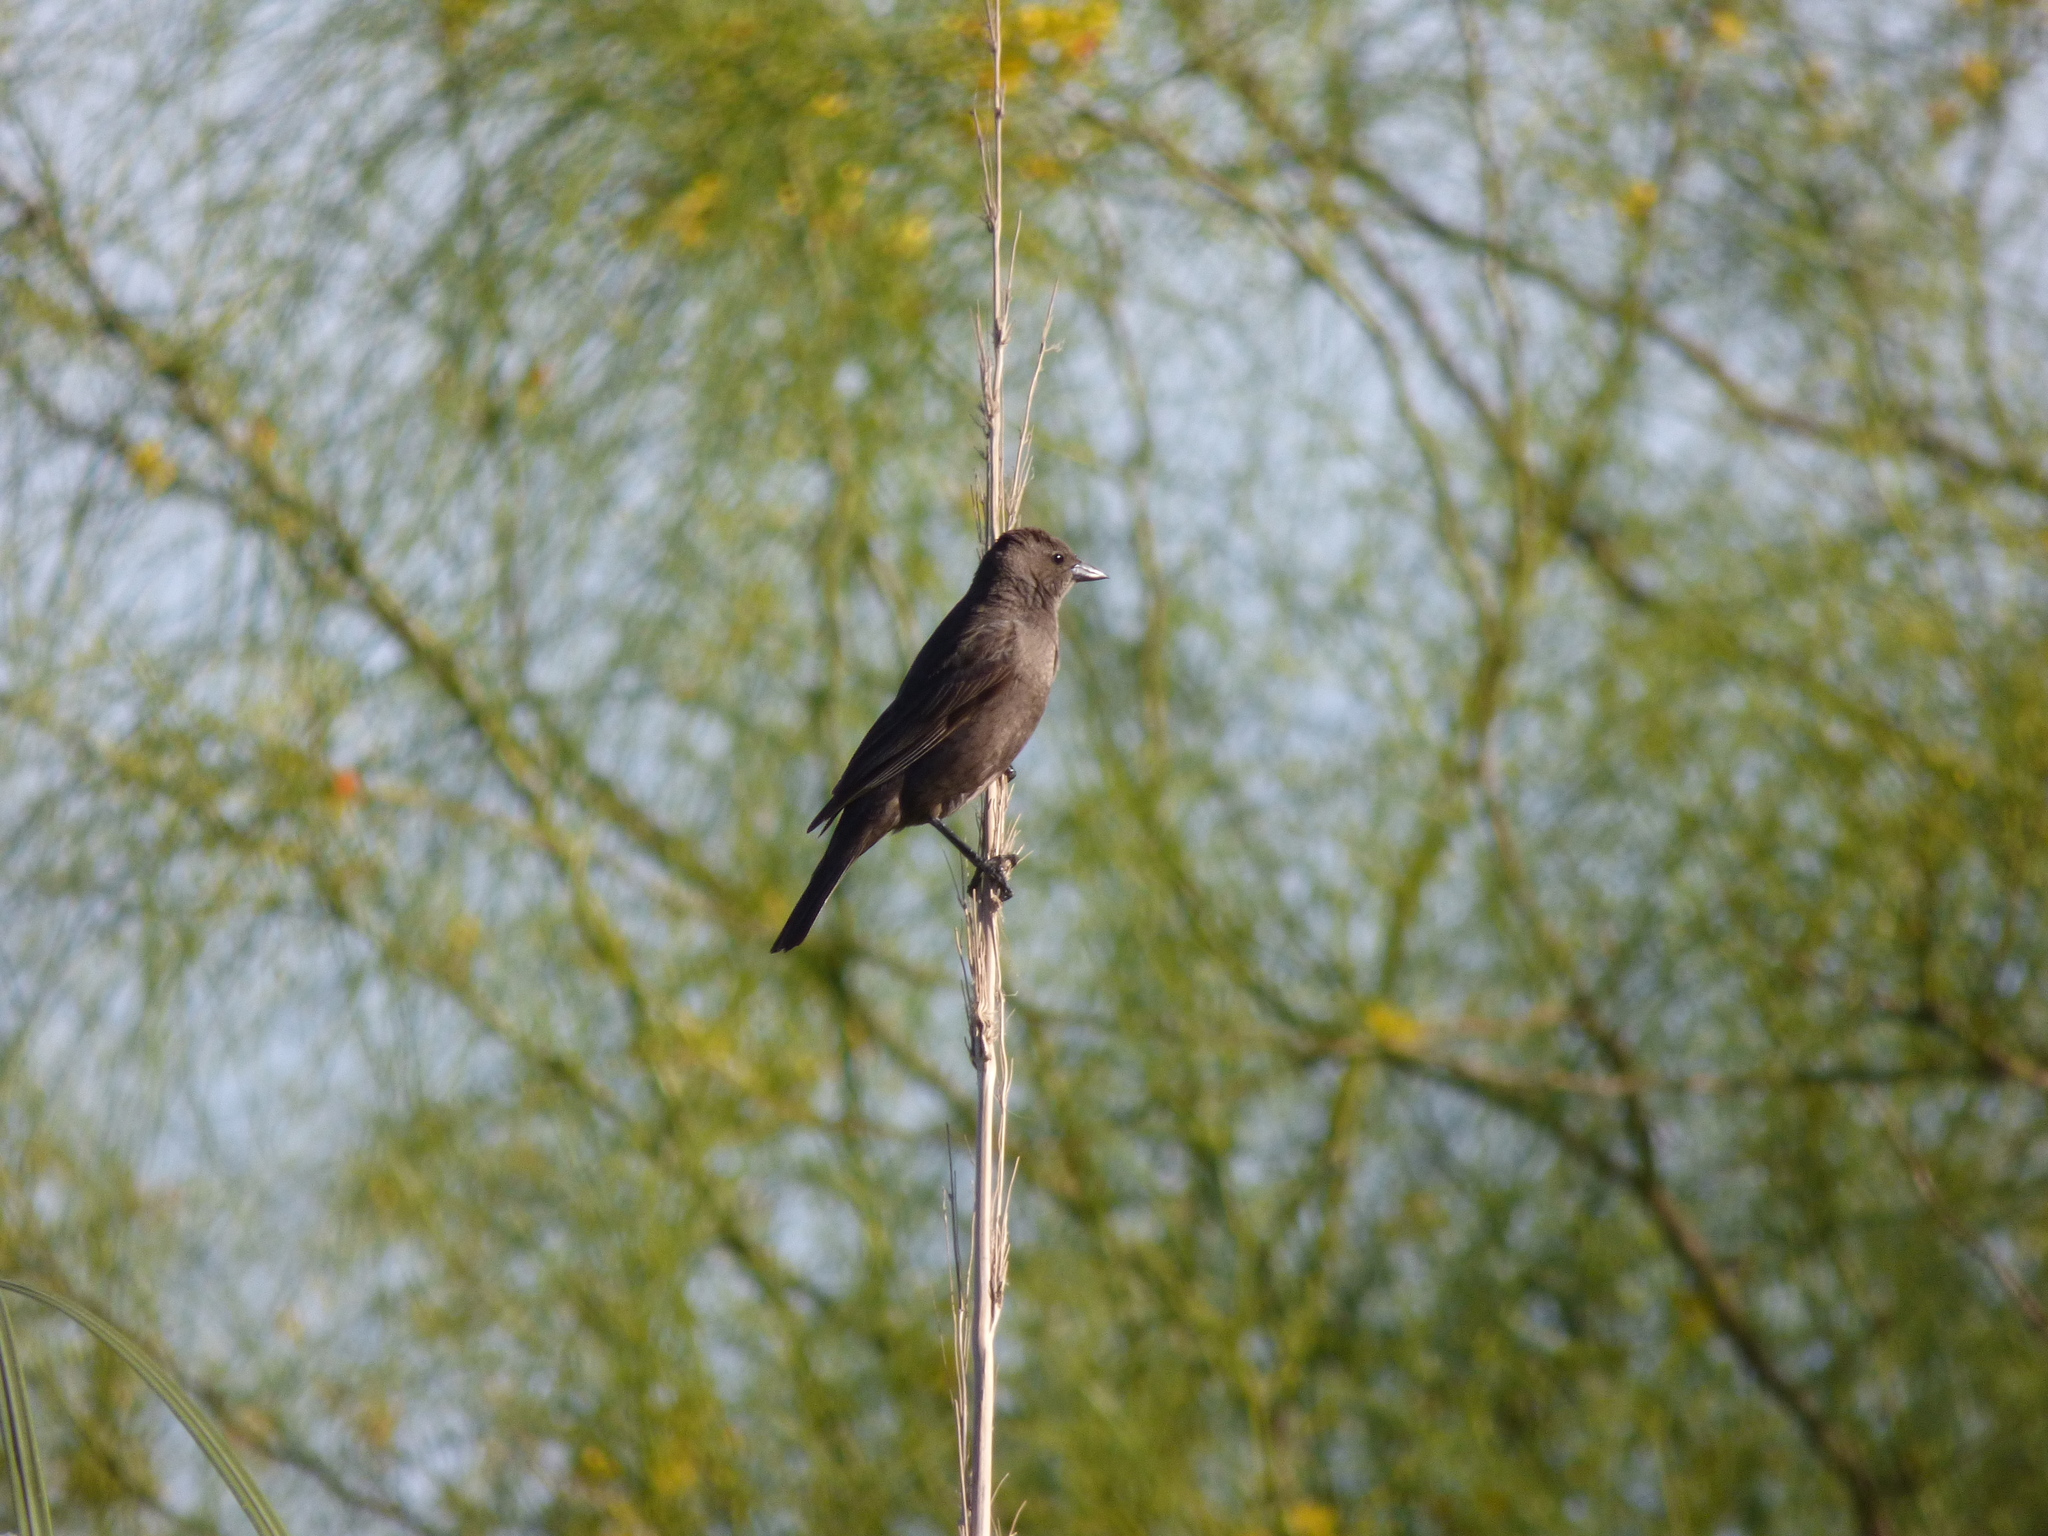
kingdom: Animalia
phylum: Chordata
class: Aves
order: Passeriformes
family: Icteridae
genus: Molothrus
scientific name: Molothrus bonariensis
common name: Shiny cowbird
